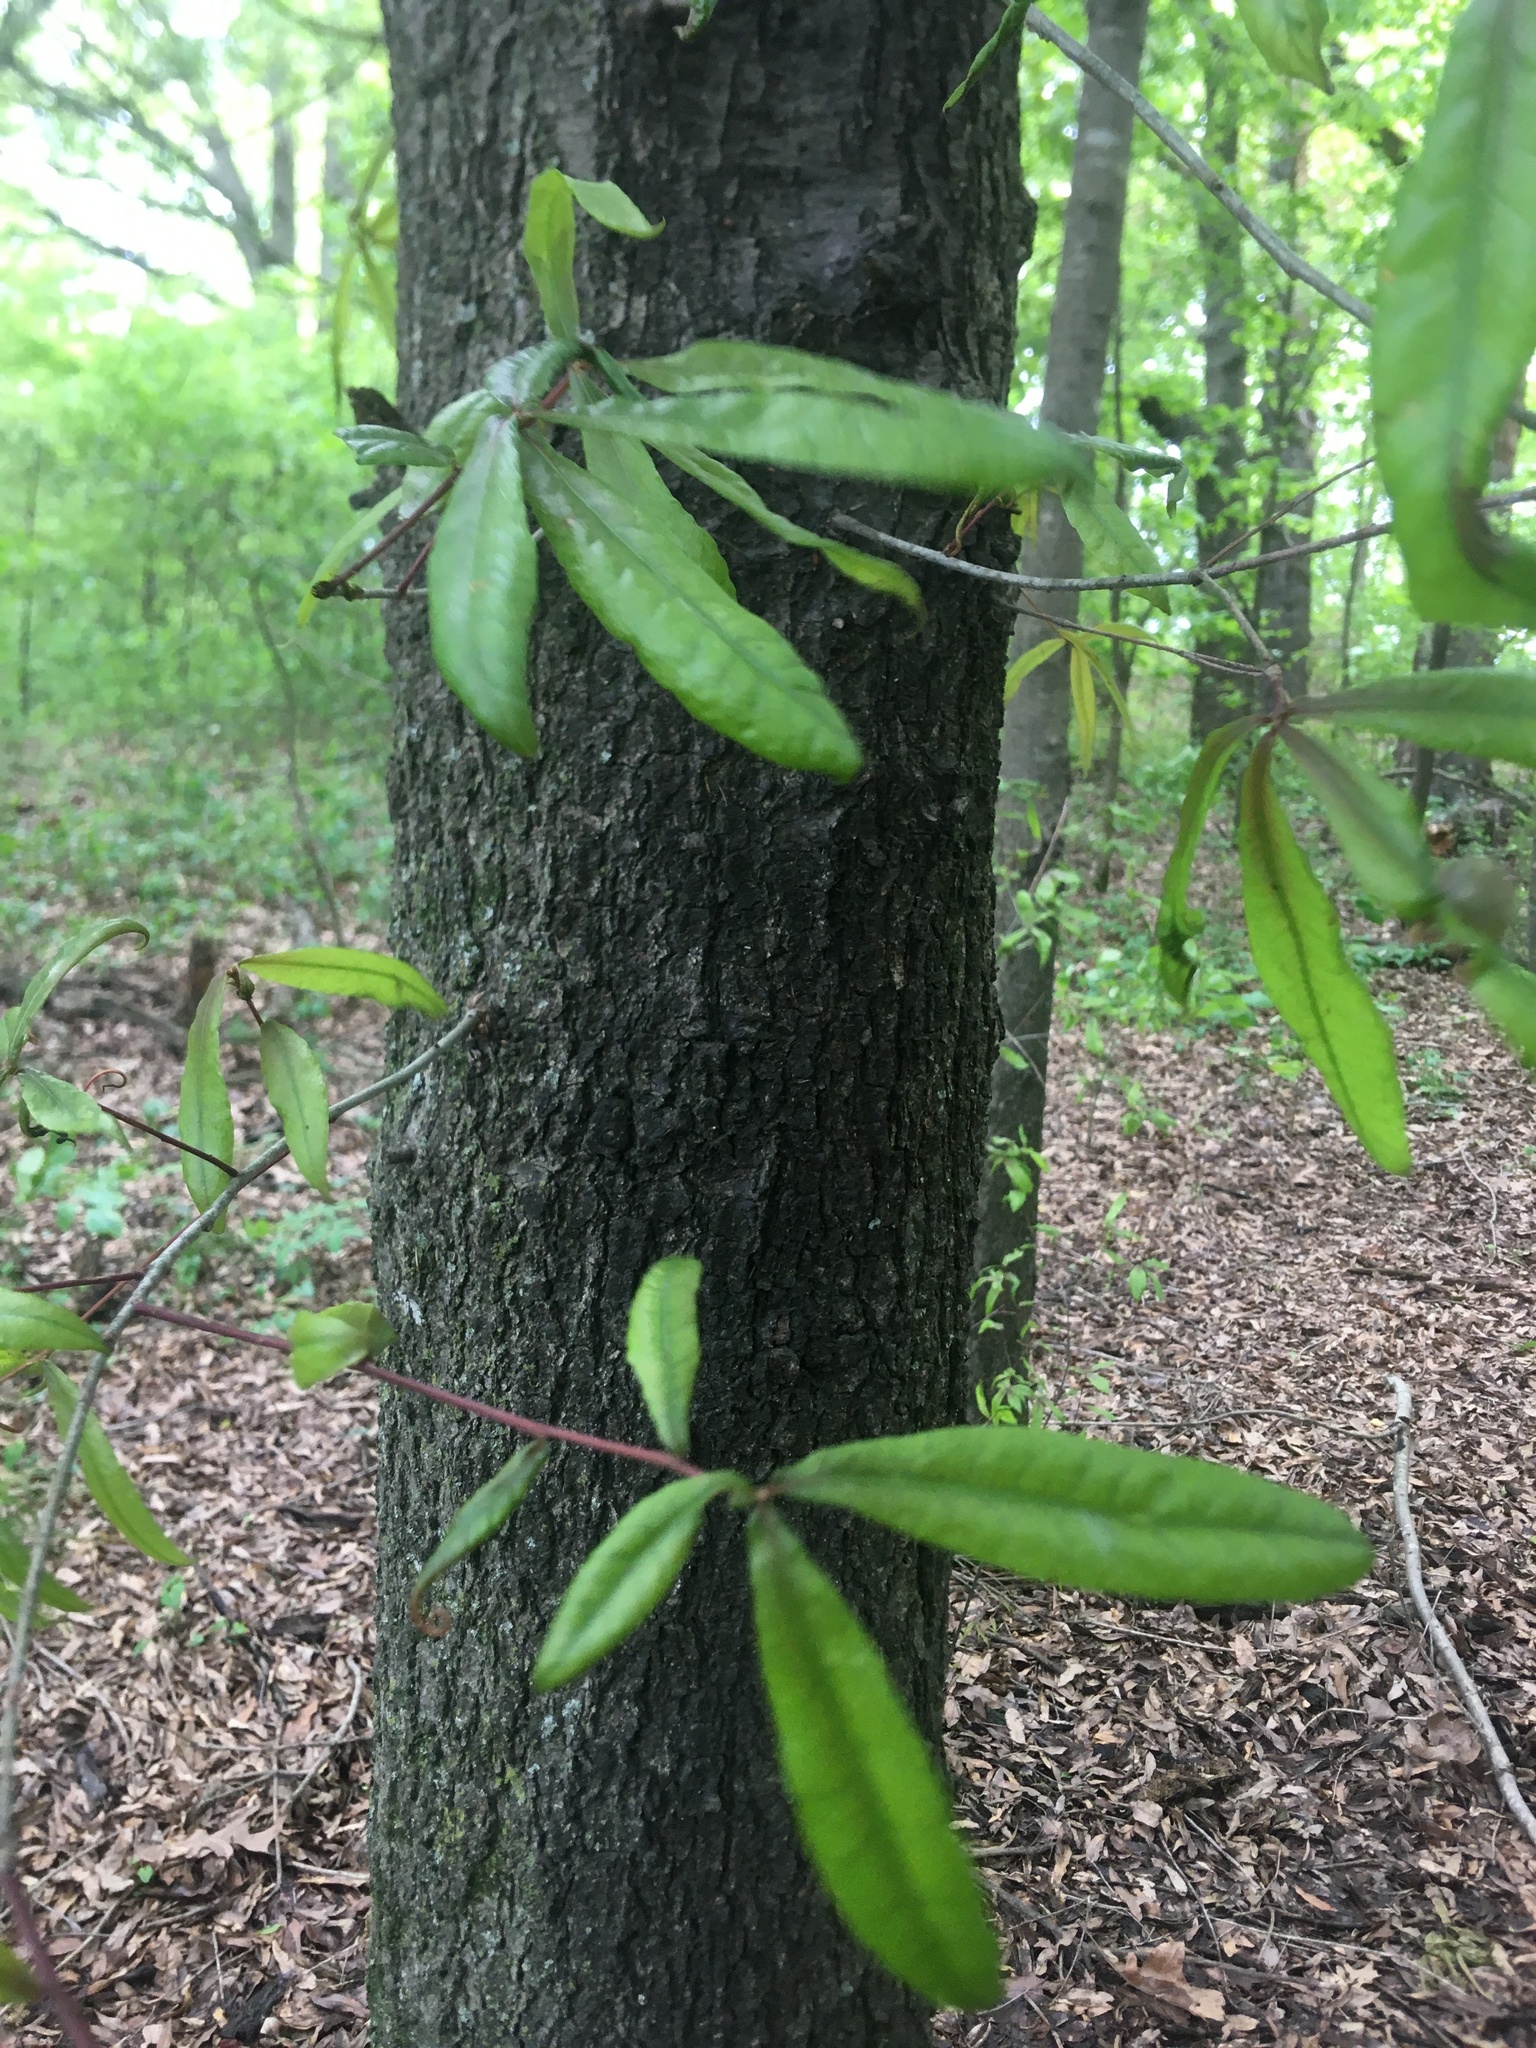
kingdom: Plantae
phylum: Tracheophyta
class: Magnoliopsida
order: Fagales
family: Fagaceae
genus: Quercus
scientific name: Quercus phellos
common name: Willow oak
